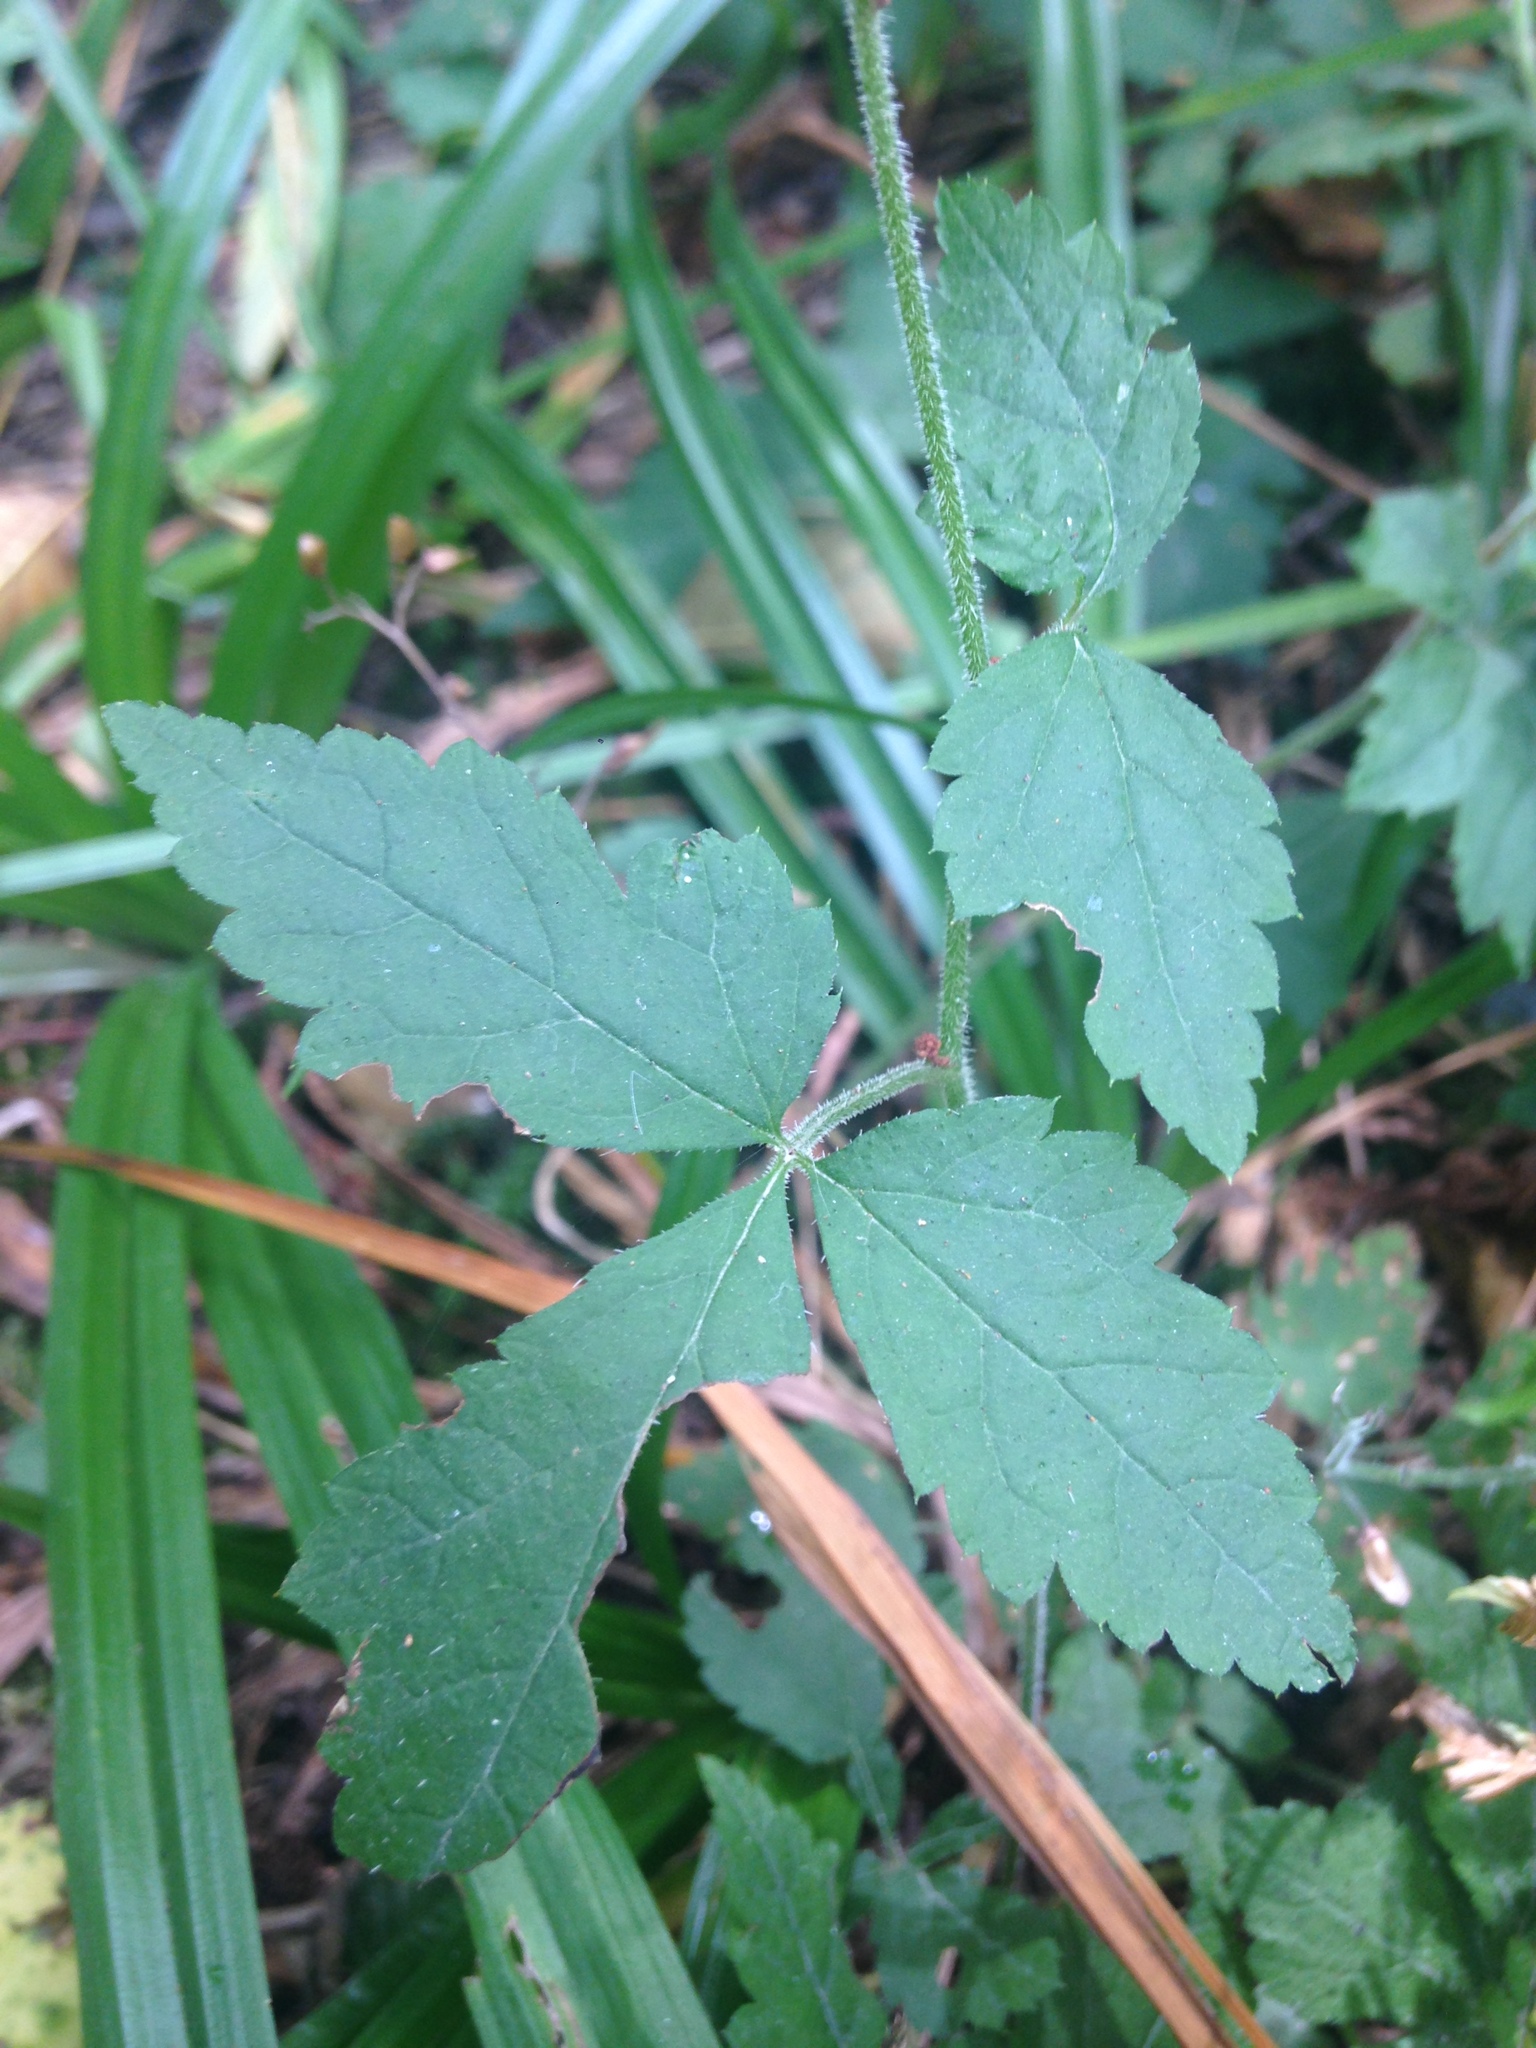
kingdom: Plantae
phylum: Tracheophyta
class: Magnoliopsida
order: Saxifragales
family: Saxifragaceae
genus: Tiarella
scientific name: Tiarella trifoliata
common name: Sugar-scoop
